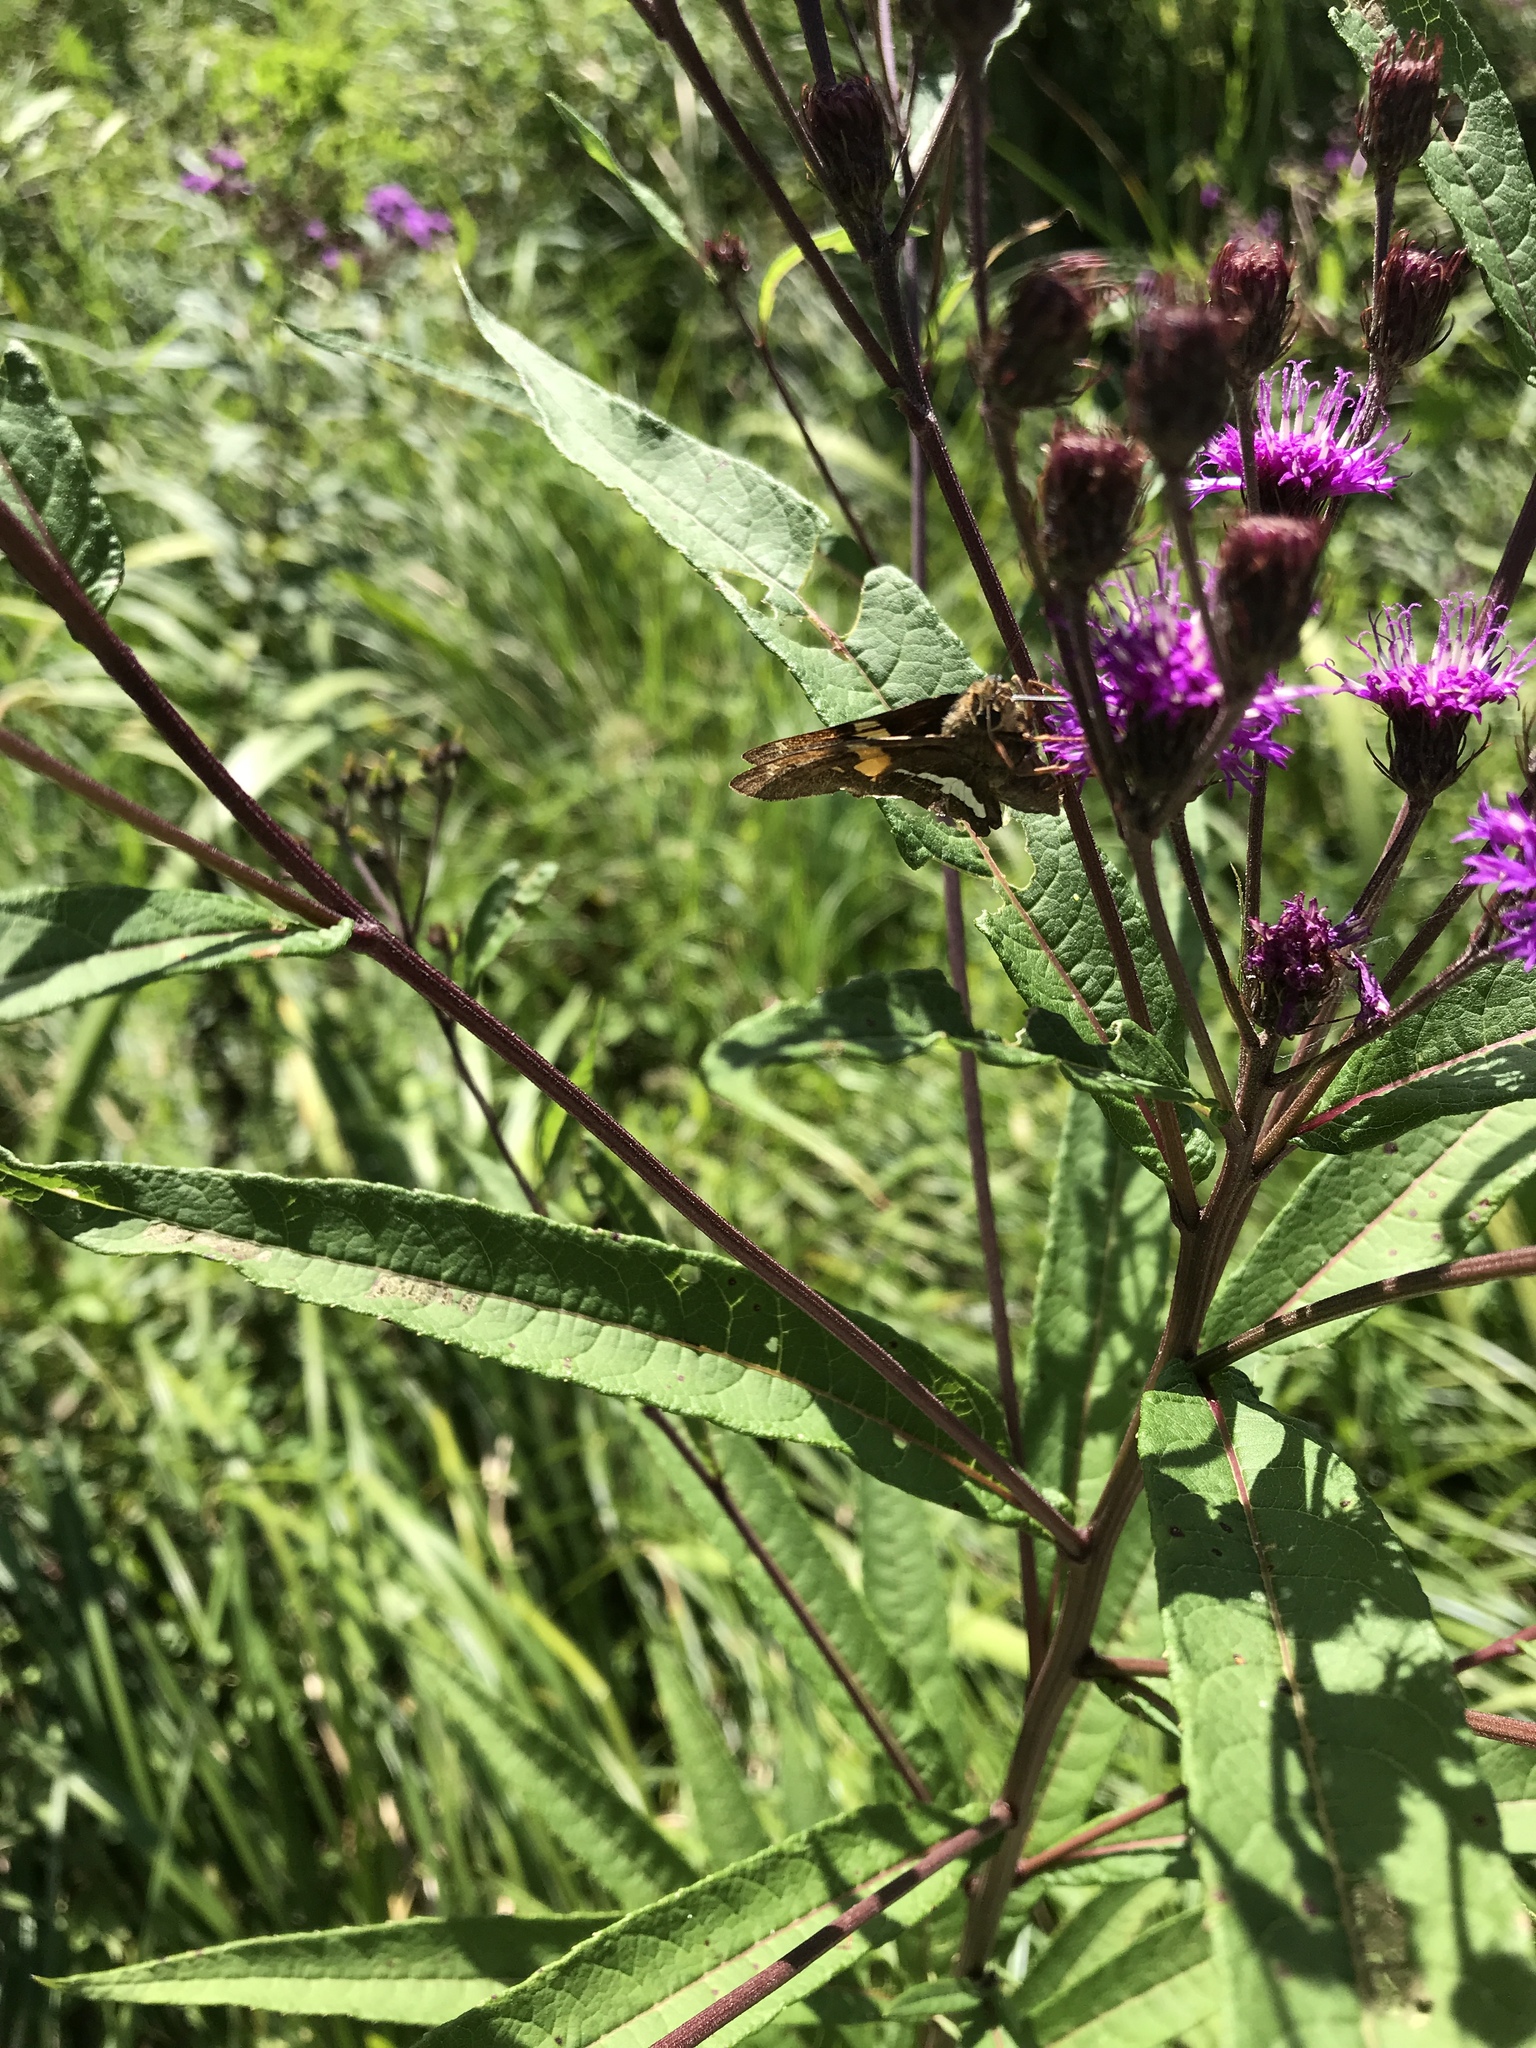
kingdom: Animalia
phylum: Arthropoda
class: Insecta
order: Lepidoptera
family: Hesperiidae
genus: Epargyreus
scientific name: Epargyreus clarus
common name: Silver-spotted skipper
